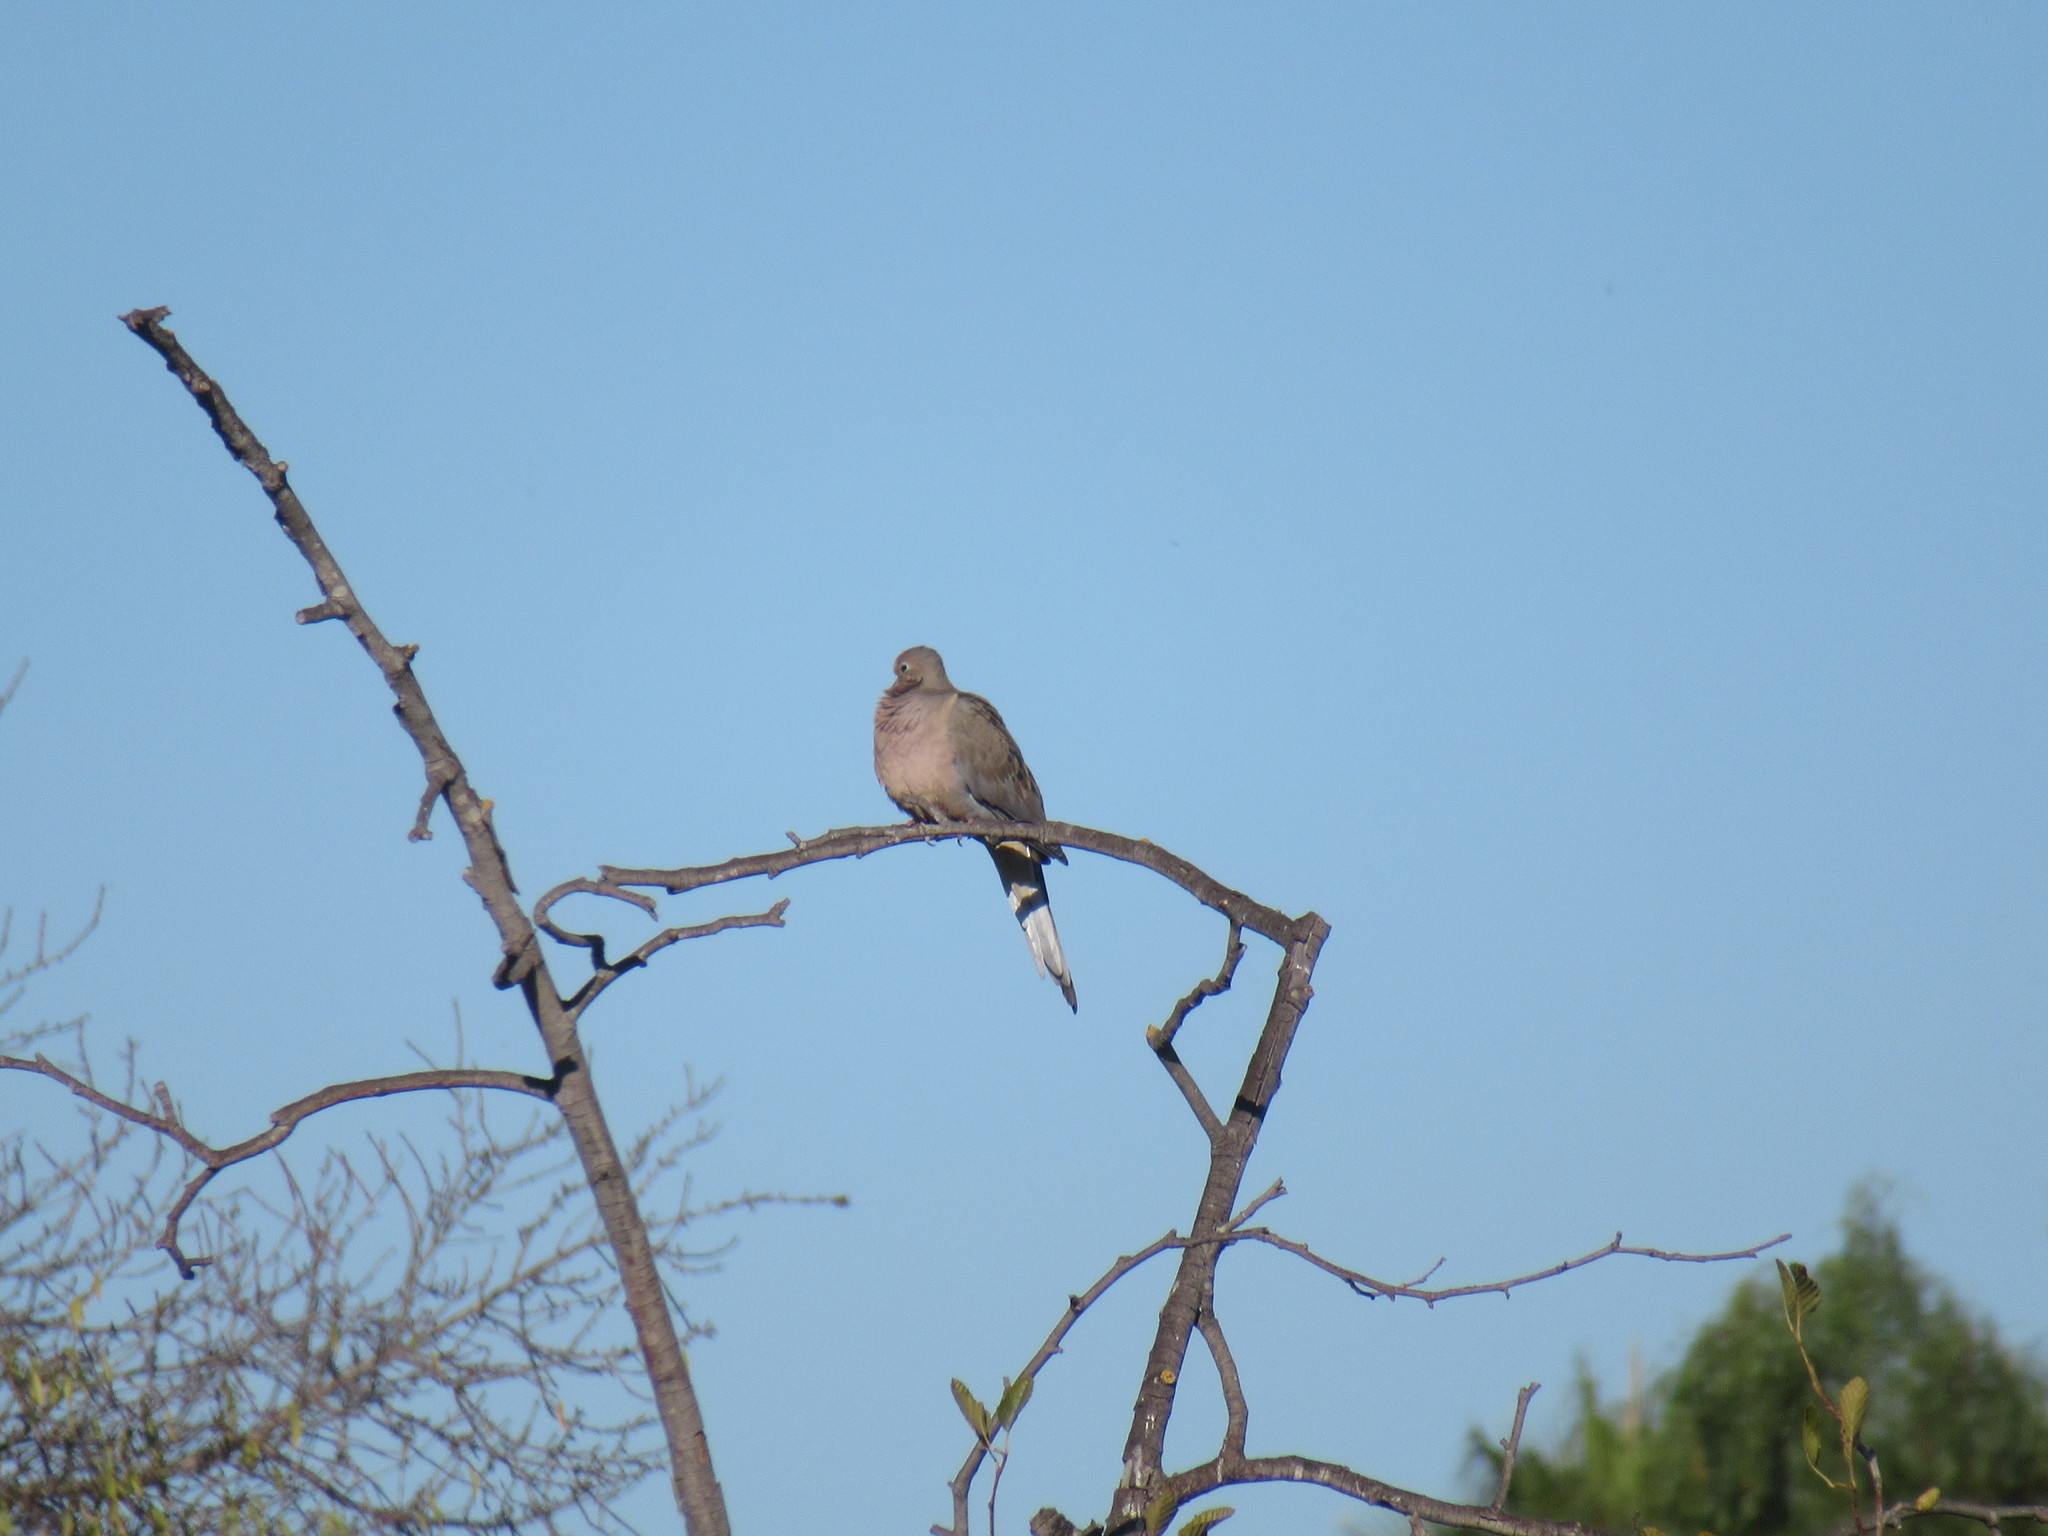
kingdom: Animalia
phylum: Chordata
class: Aves
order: Columbiformes
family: Columbidae
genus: Zenaida
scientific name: Zenaida macroura
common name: Mourning dove
